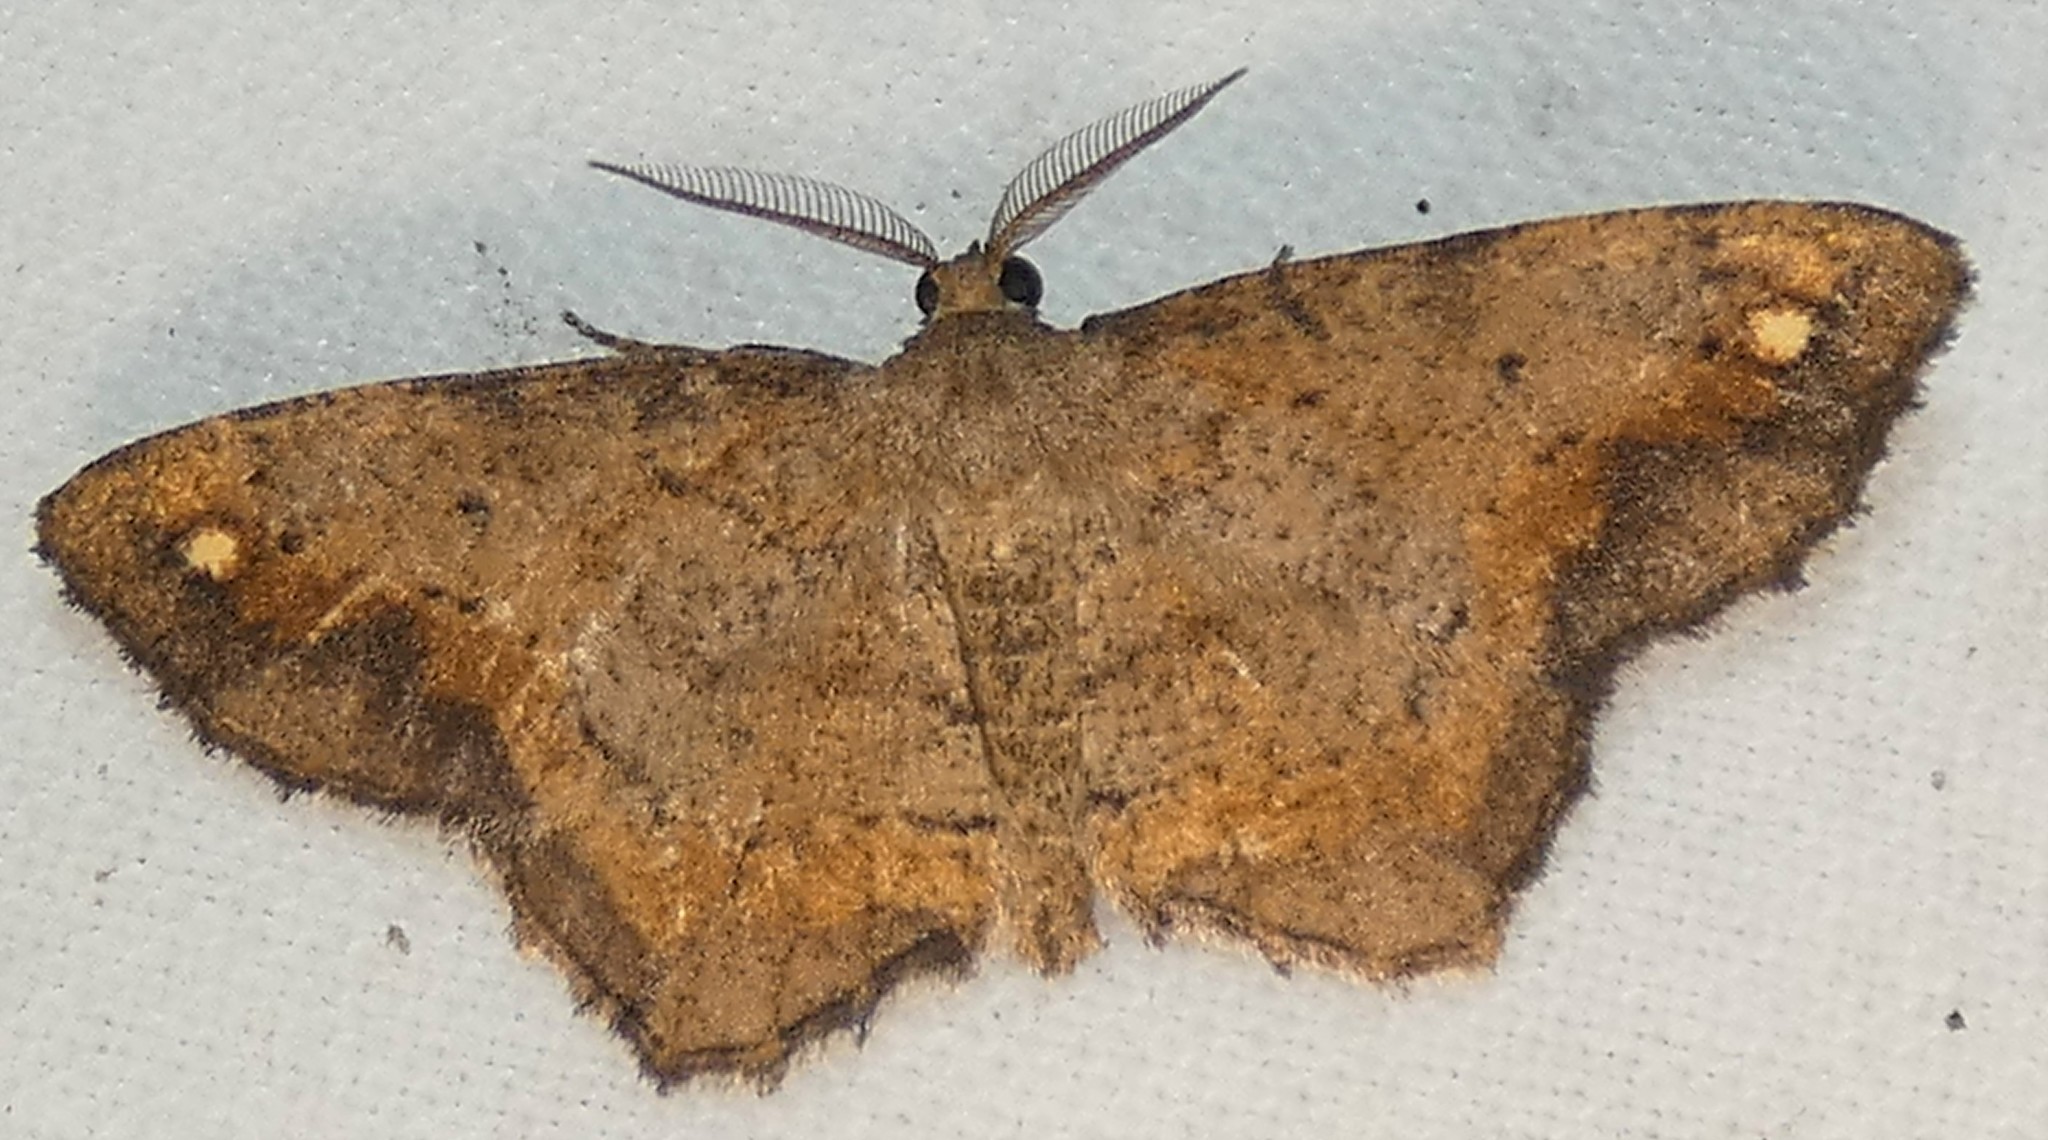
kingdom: Animalia
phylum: Arthropoda
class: Insecta
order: Lepidoptera
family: Geometridae
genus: Hypagyrtis
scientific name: Hypagyrtis esther
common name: Esther moth
